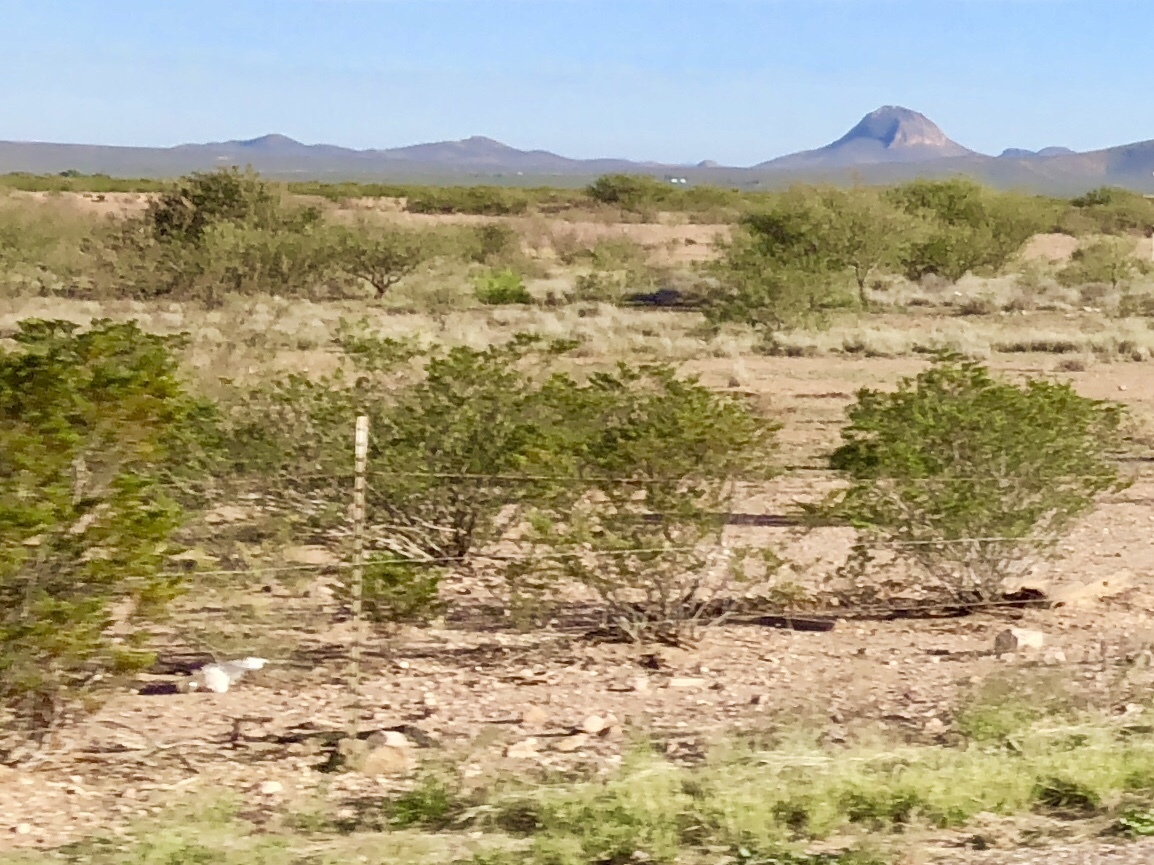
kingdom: Plantae
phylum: Tracheophyta
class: Magnoliopsida
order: Zygophyllales
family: Zygophyllaceae
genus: Larrea
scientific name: Larrea tridentata
